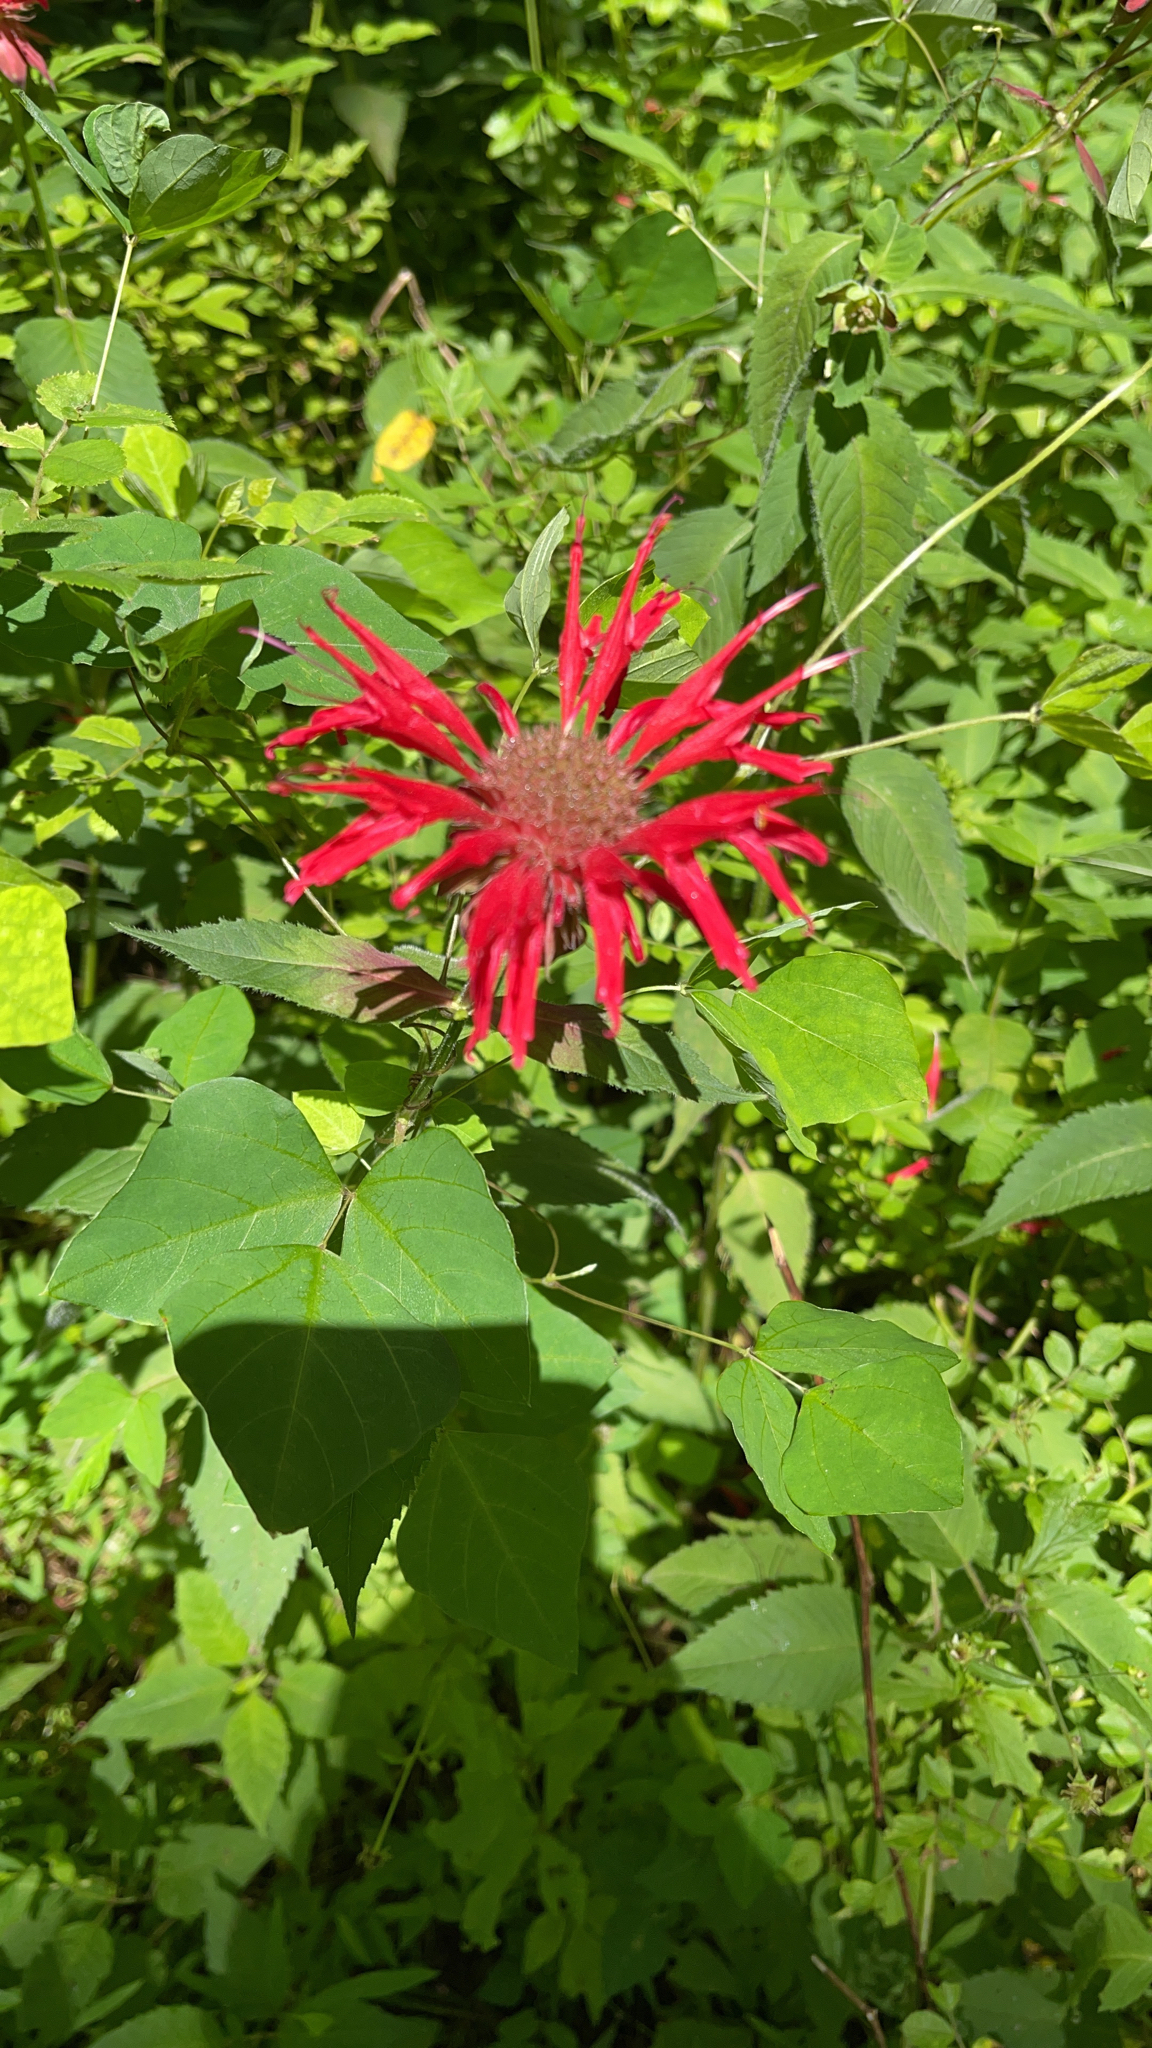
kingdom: Plantae
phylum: Tracheophyta
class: Magnoliopsida
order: Lamiales
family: Lamiaceae
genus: Monarda
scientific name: Monarda didyma
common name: Beebalm
